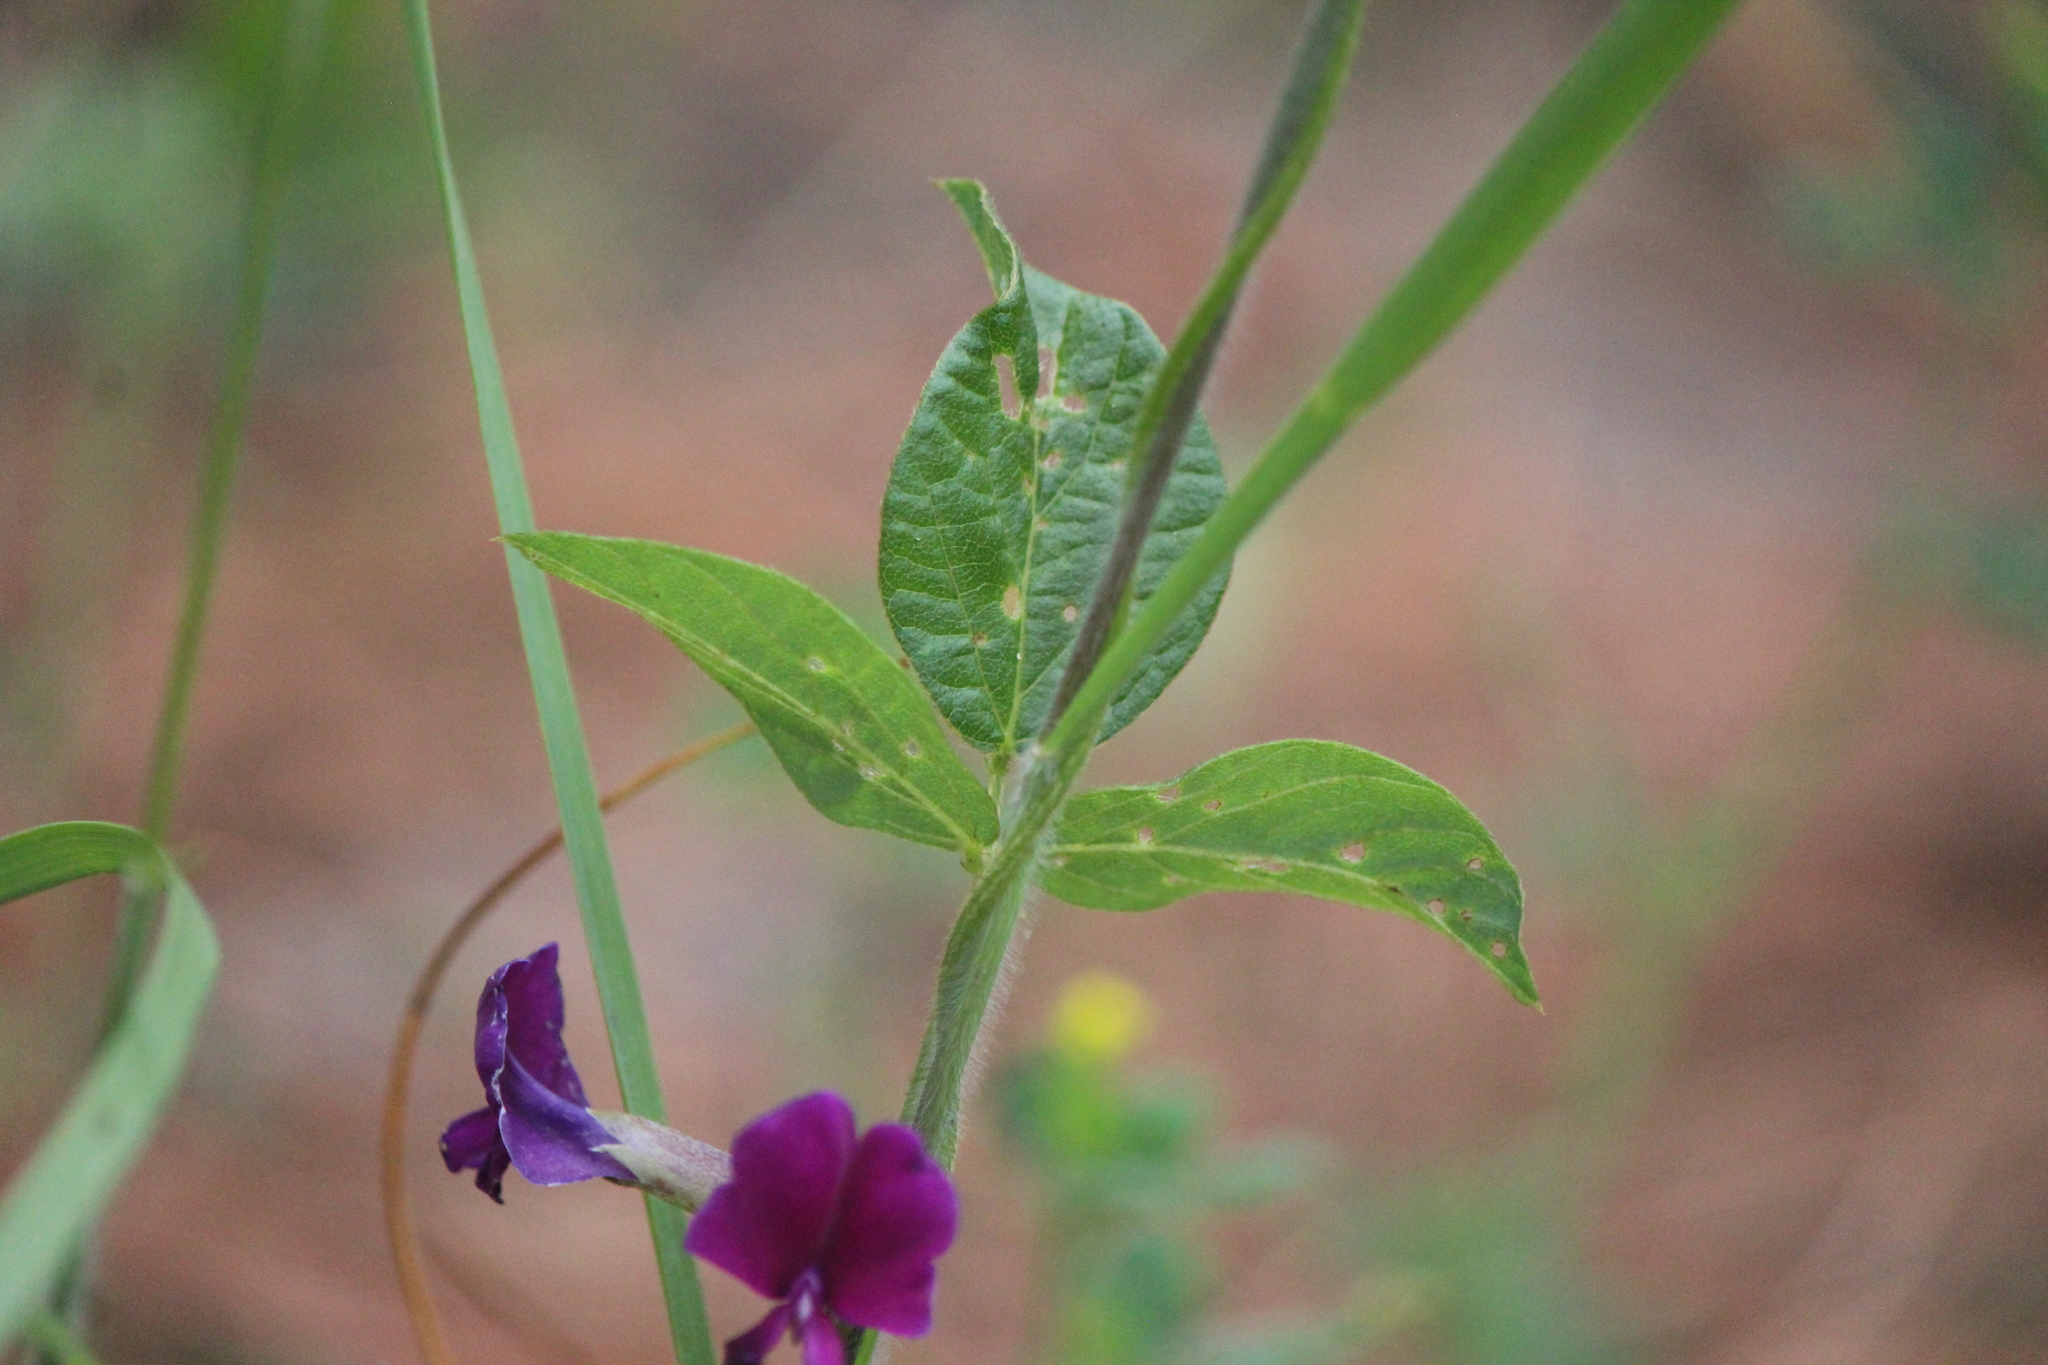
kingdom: Plantae
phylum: Tracheophyta
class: Magnoliopsida
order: Fabales
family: Fabaceae
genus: Cologania
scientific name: Cologania broussonetii
